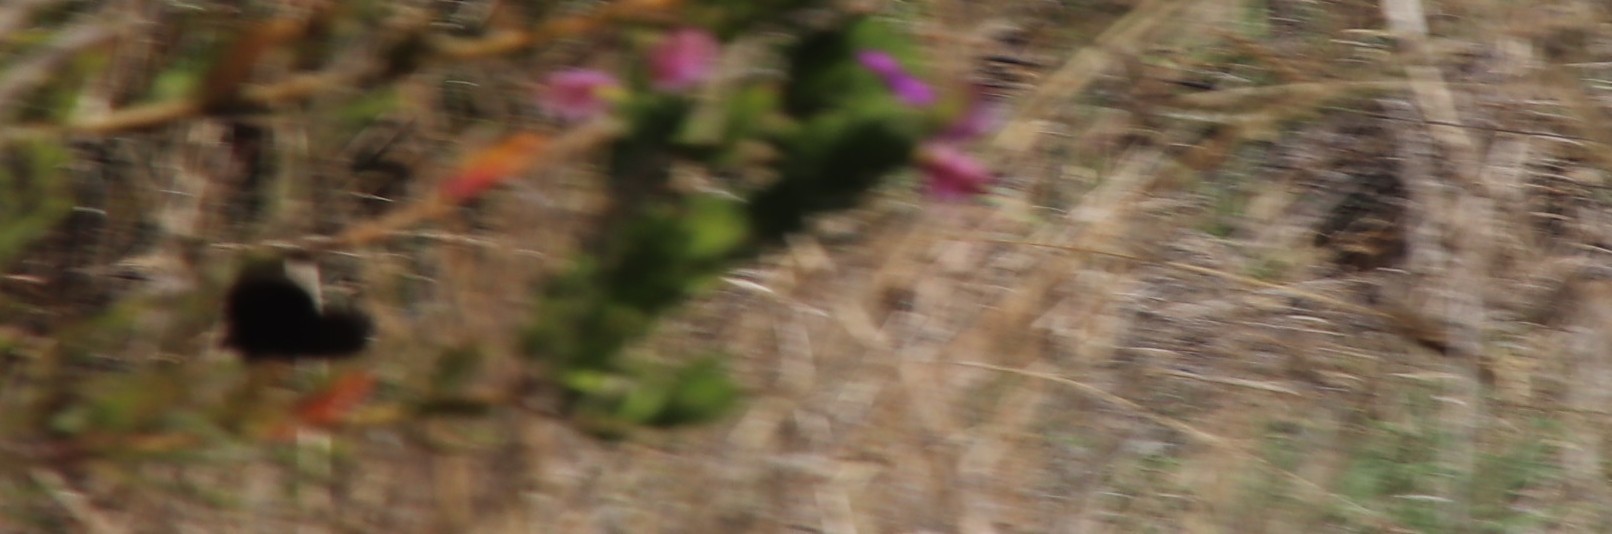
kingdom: Animalia
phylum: Arthropoda
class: Insecta
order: Lepidoptera
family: Nymphalidae
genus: Dira
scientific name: Dira clytus
